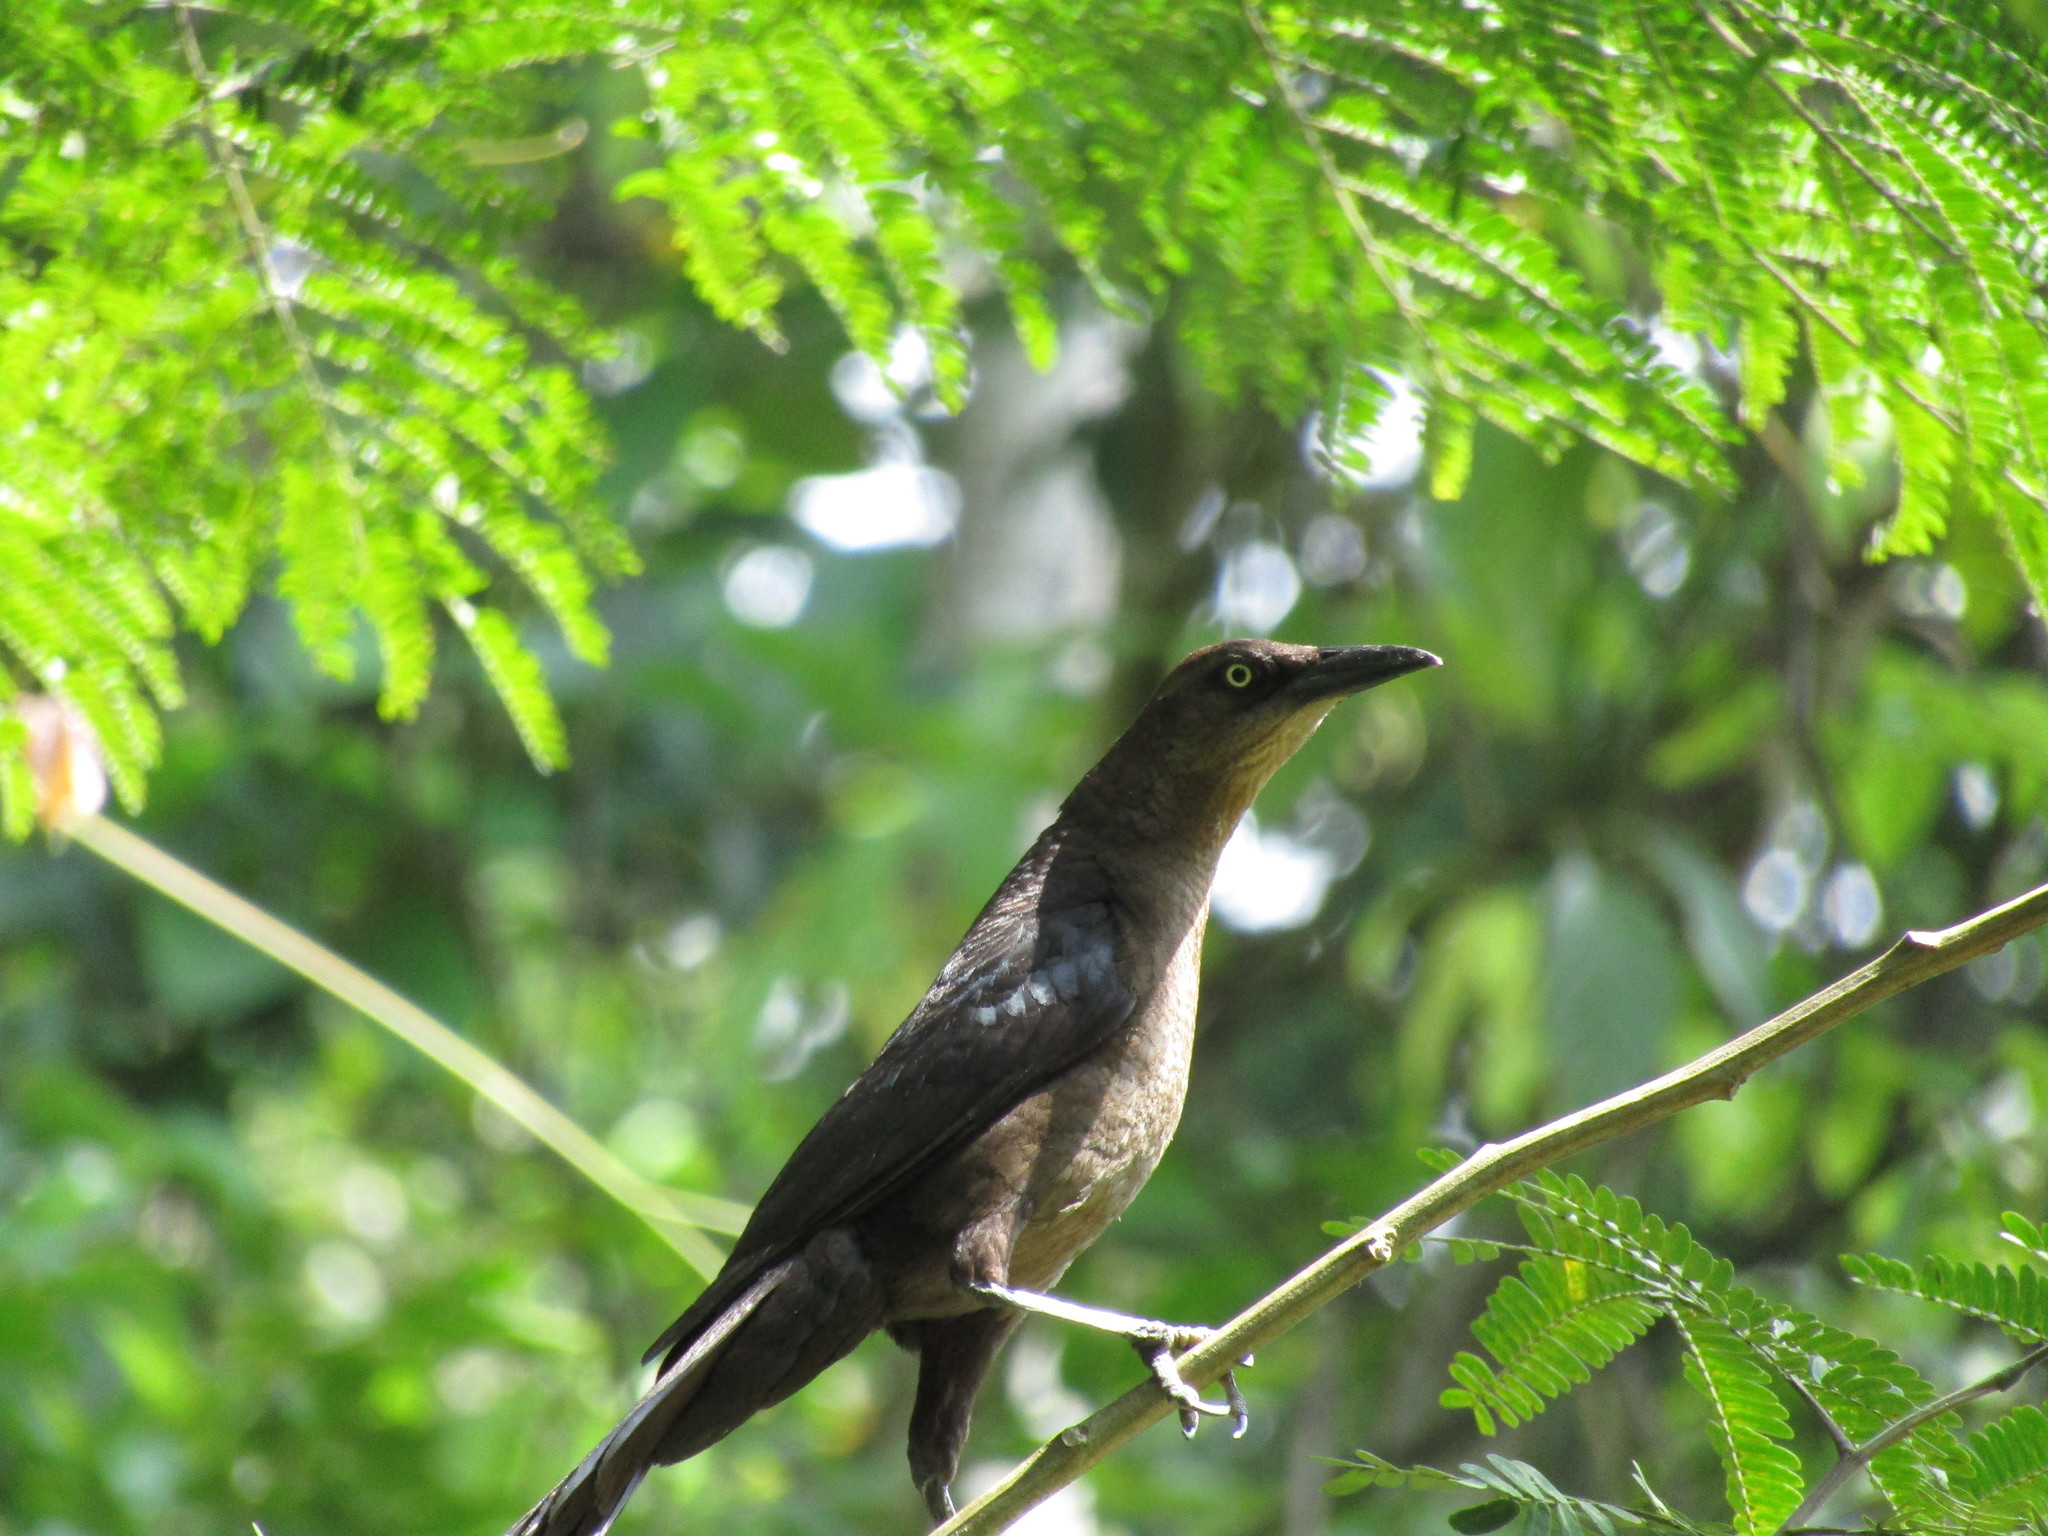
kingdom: Animalia
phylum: Chordata
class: Aves
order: Passeriformes
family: Icteridae
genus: Quiscalus
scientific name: Quiscalus mexicanus
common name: Great-tailed grackle
